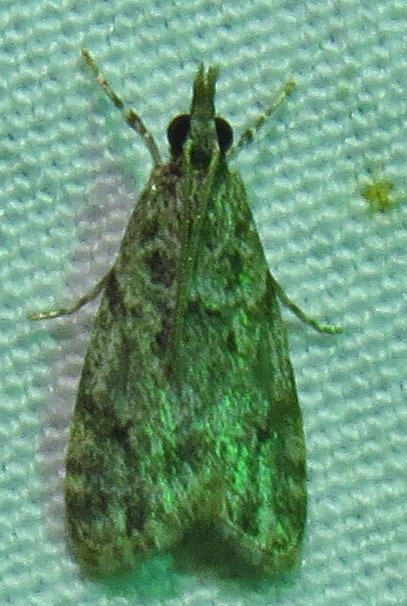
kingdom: Animalia
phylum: Arthropoda
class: Insecta
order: Lepidoptera
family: Crambidae
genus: Eudonia
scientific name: Eudonia heterosalis
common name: Mcdunnough's eudonia
